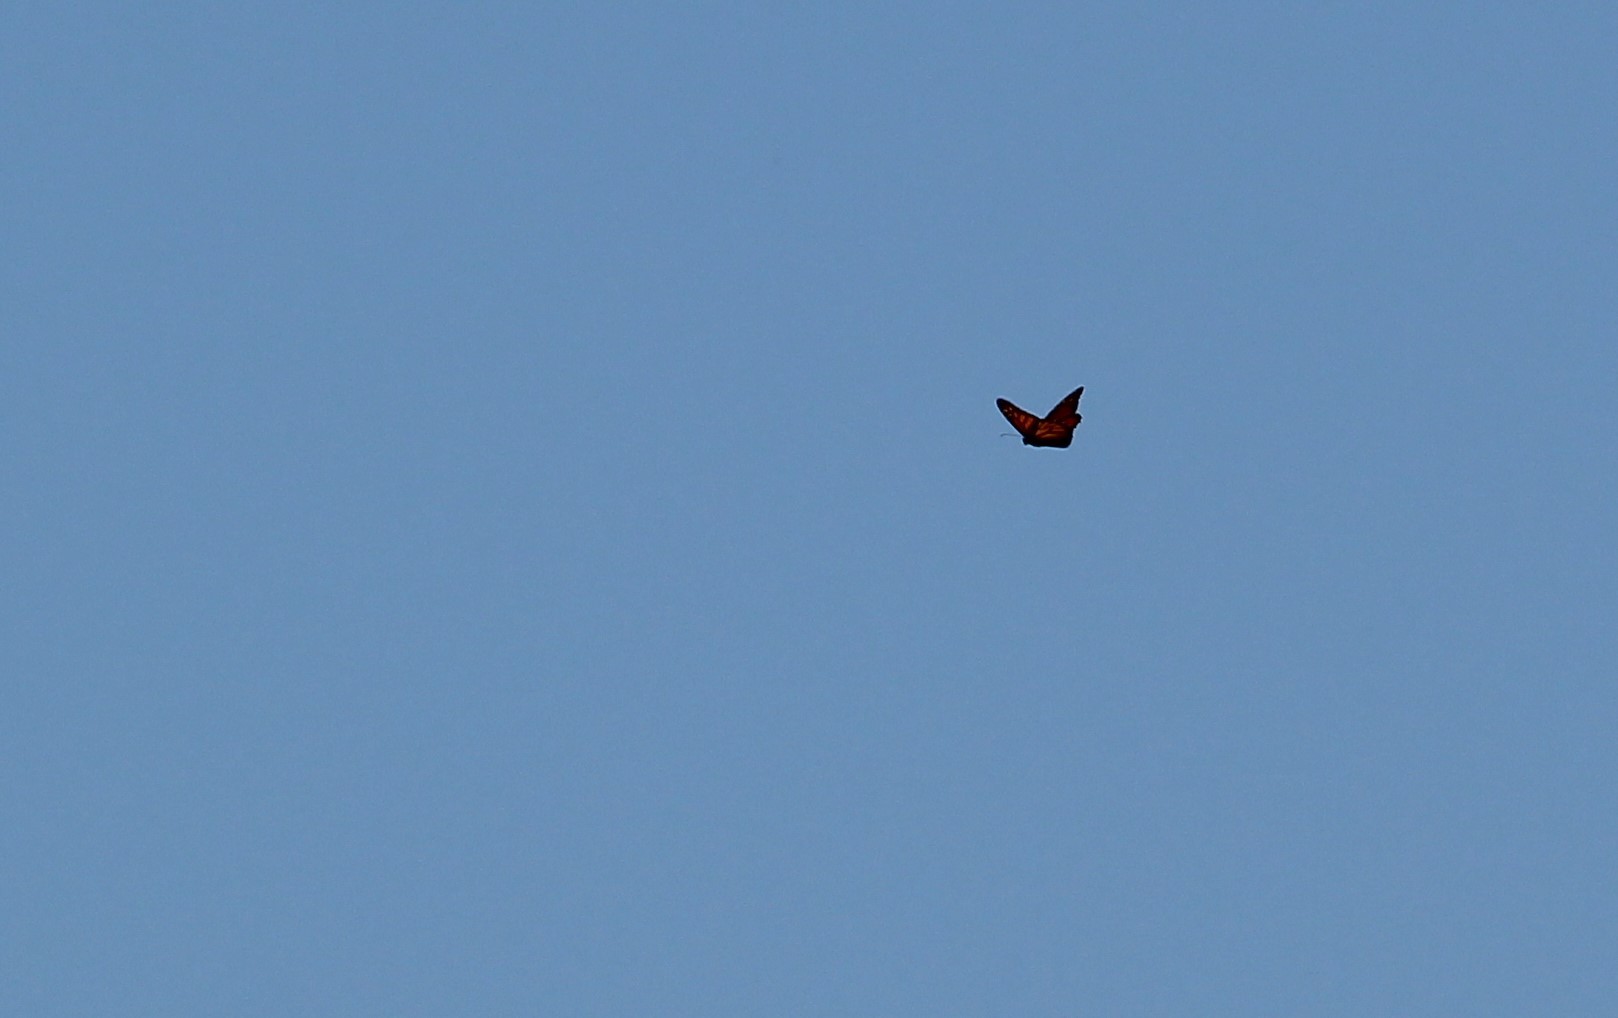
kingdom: Animalia
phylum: Arthropoda
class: Insecta
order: Lepidoptera
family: Nymphalidae
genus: Danaus
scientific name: Danaus plexippus
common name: Monarch
